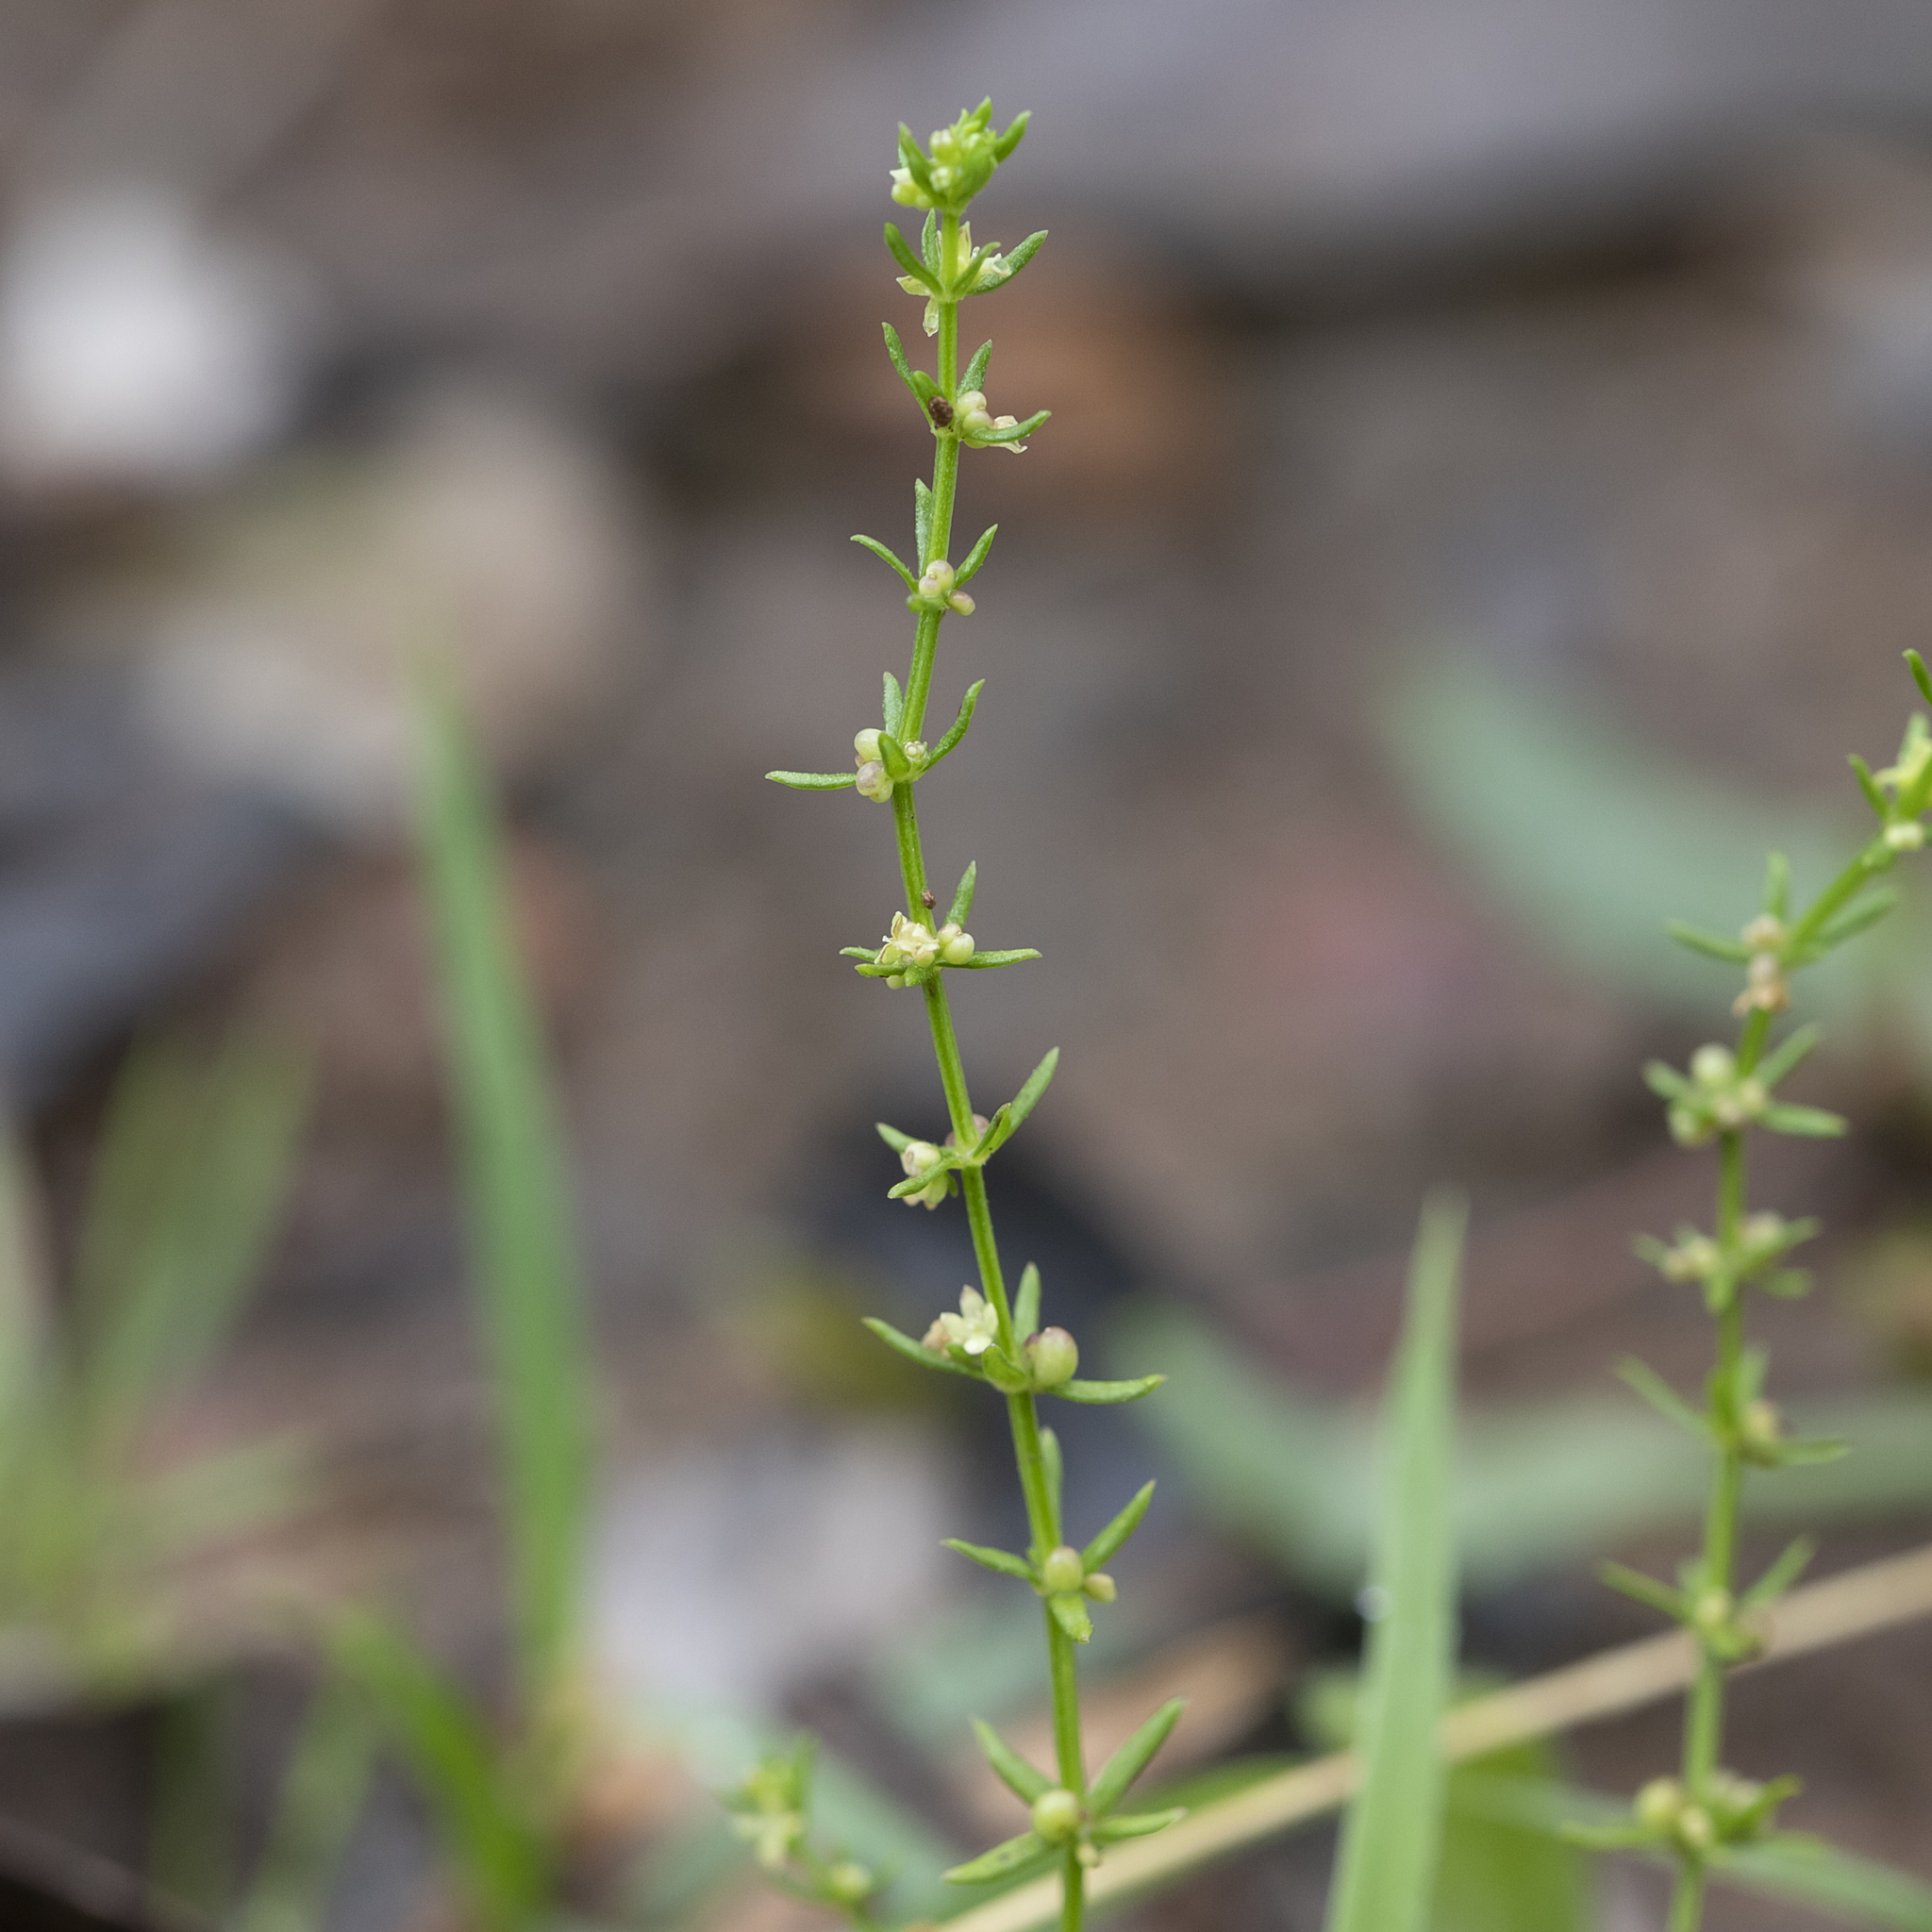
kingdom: Plantae
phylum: Tracheophyta
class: Magnoliopsida
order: Gentianales
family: Rubiaceae
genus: Galium
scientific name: Galium gaudichaudii
